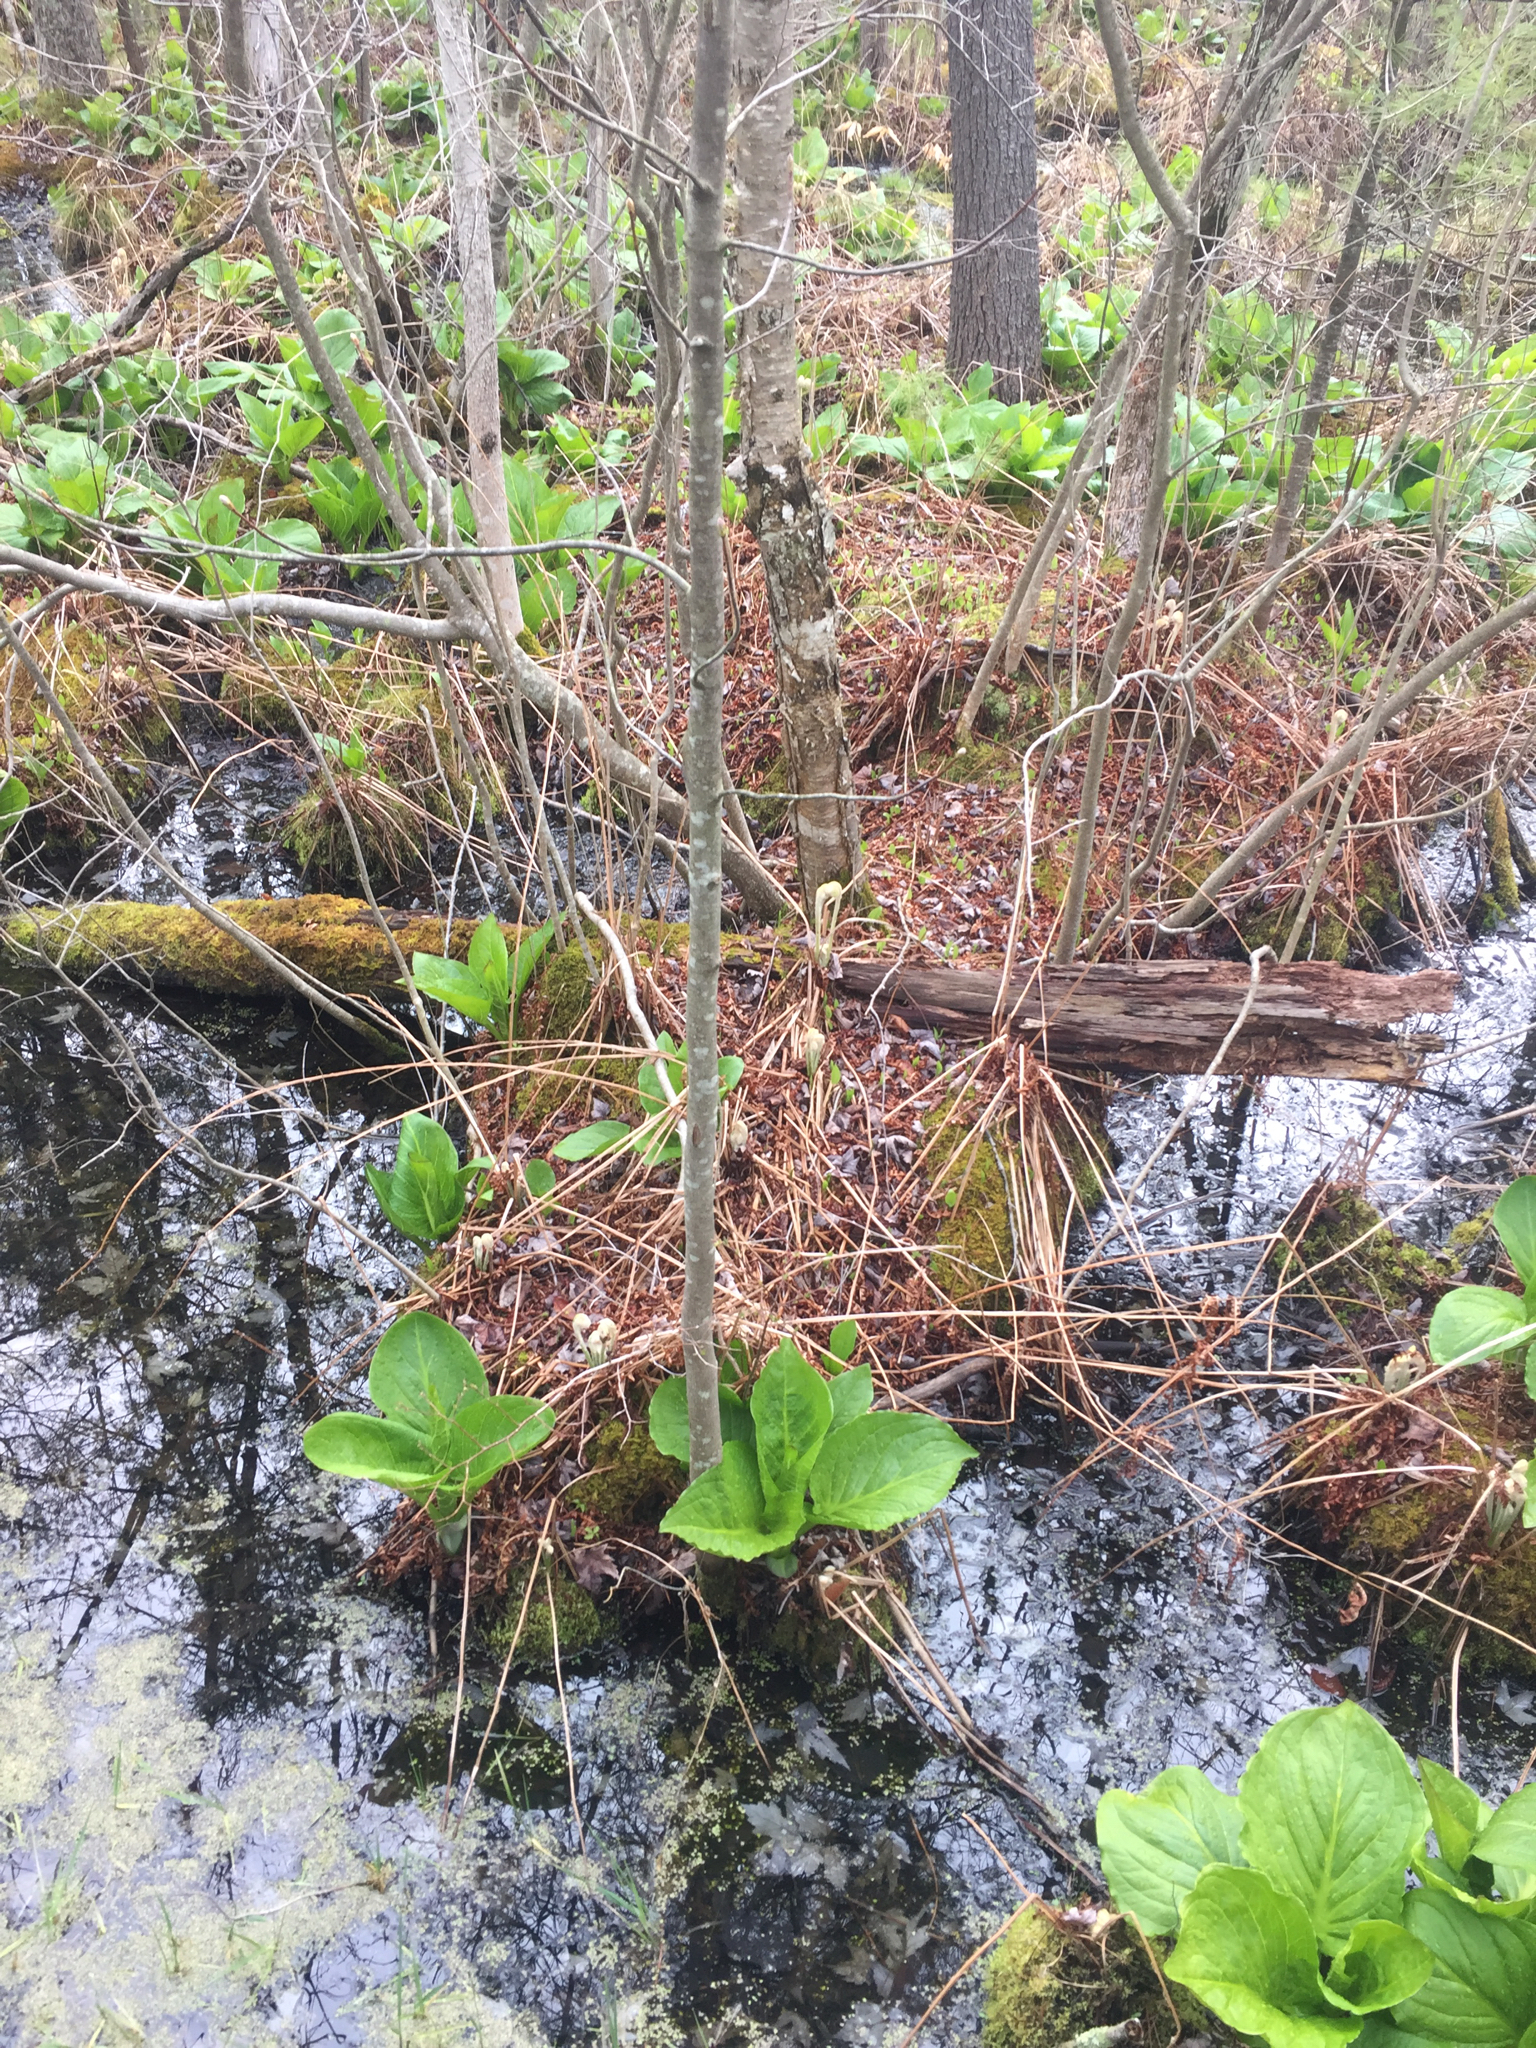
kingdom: Plantae
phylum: Tracheophyta
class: Polypodiopsida
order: Osmundales
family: Osmundaceae
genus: Osmundastrum
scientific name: Osmundastrum cinnamomeum
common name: Cinnamon fern
